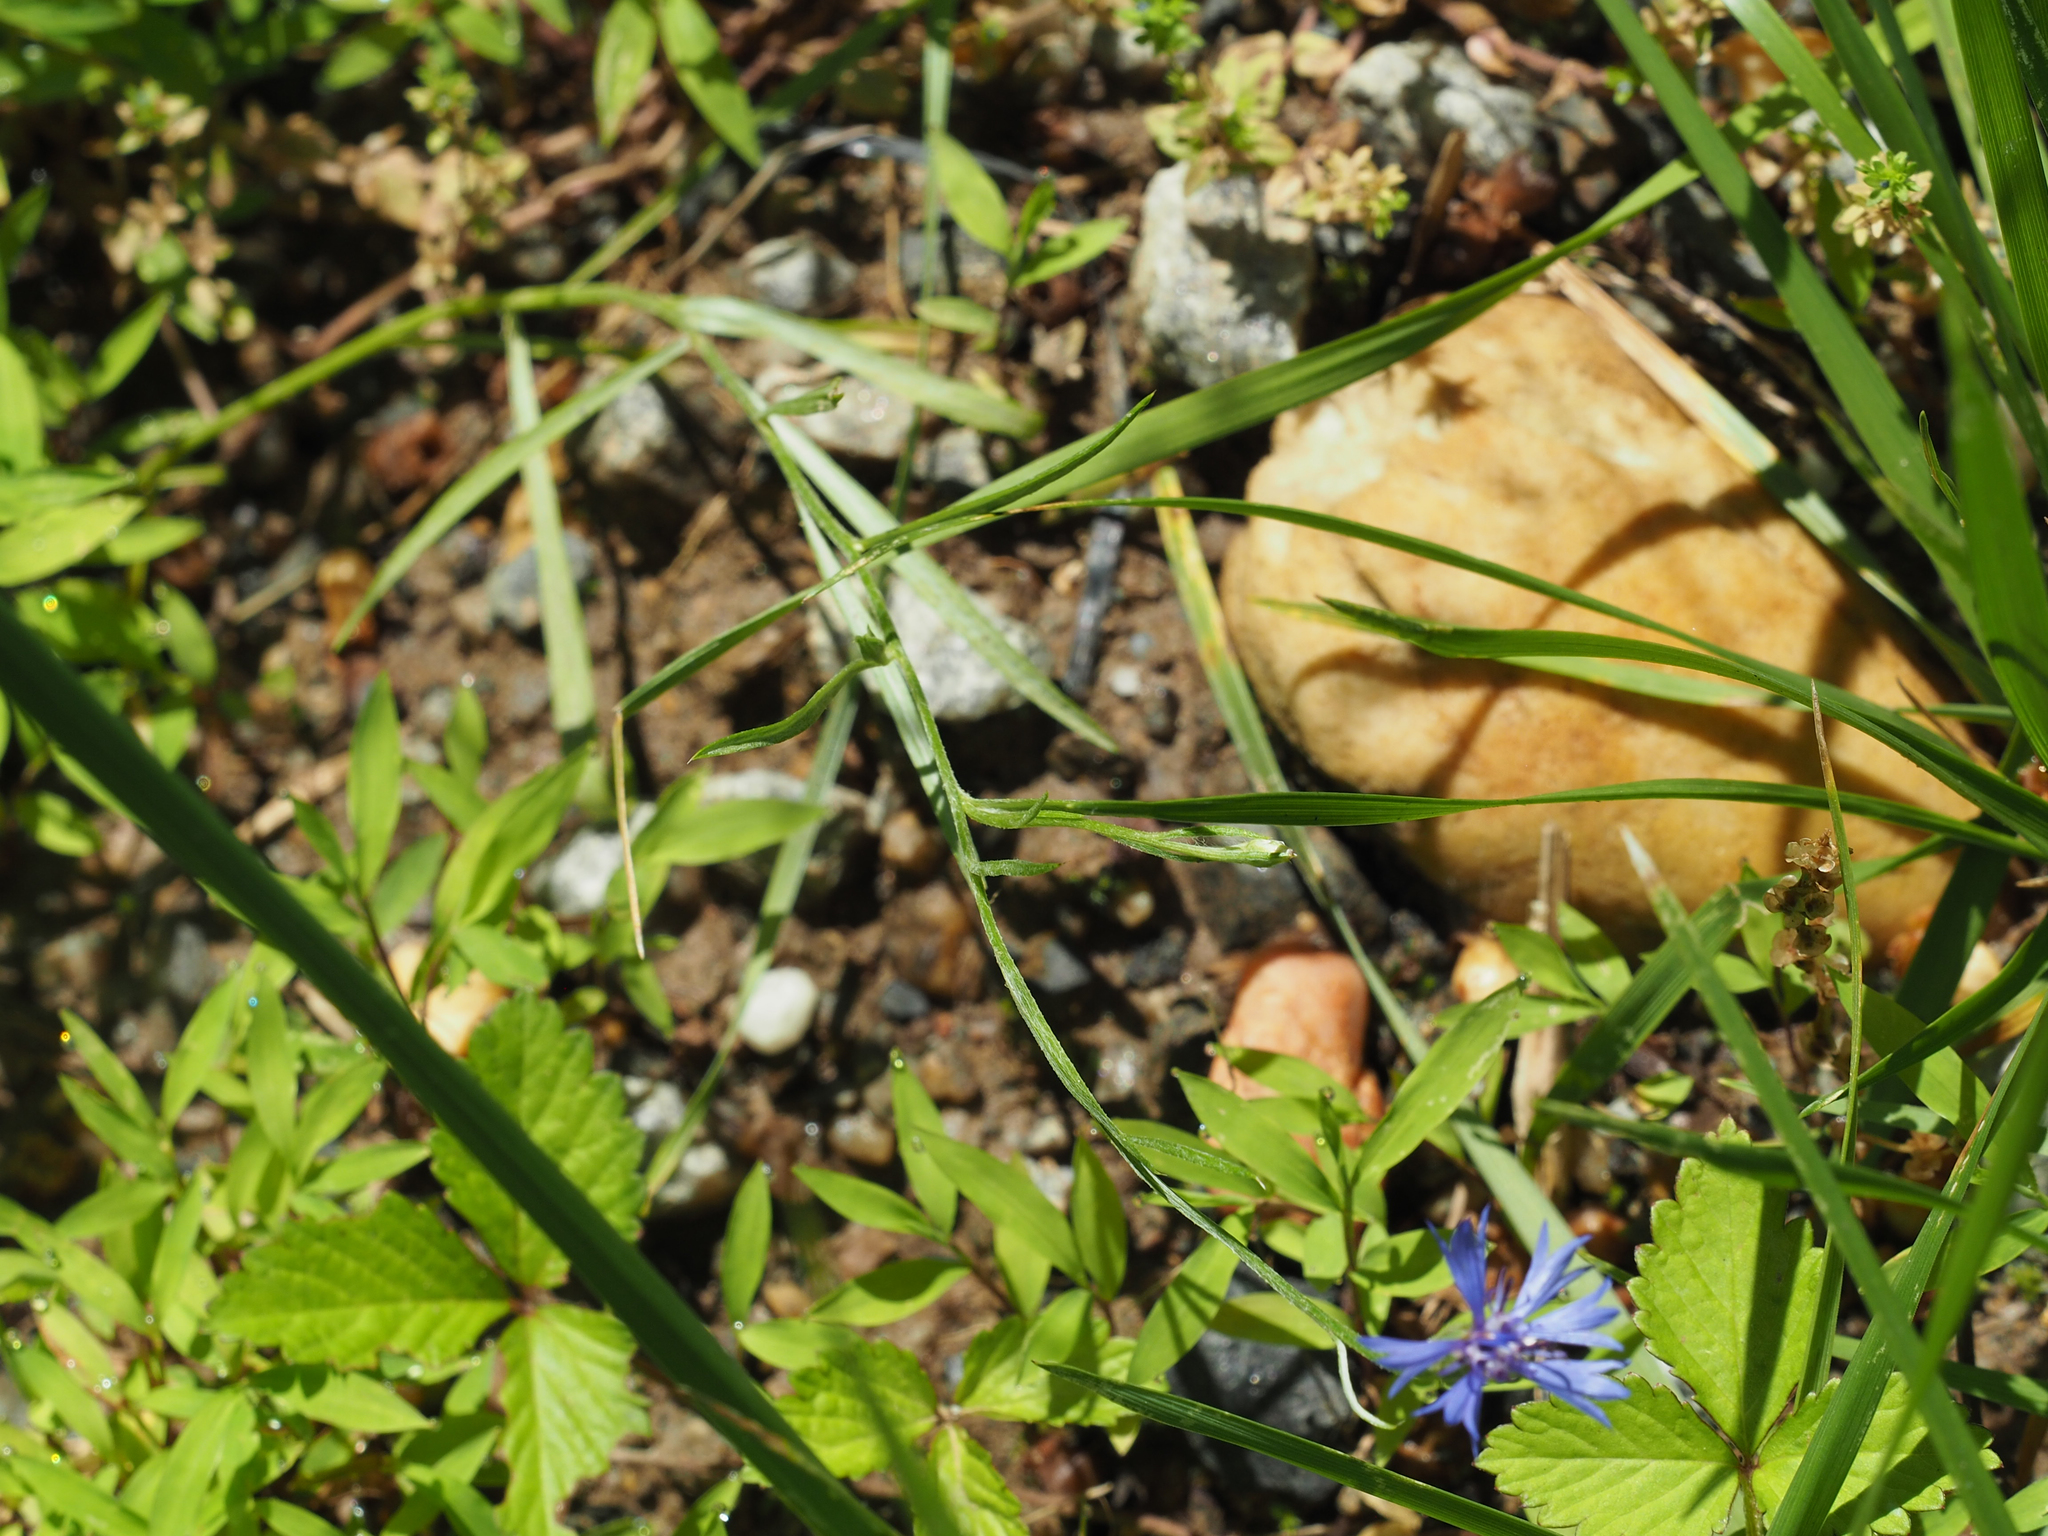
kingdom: Plantae
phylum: Tracheophyta
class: Magnoliopsida
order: Asterales
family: Asteraceae
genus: Centaurea
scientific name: Centaurea cyanus
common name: Cornflower
